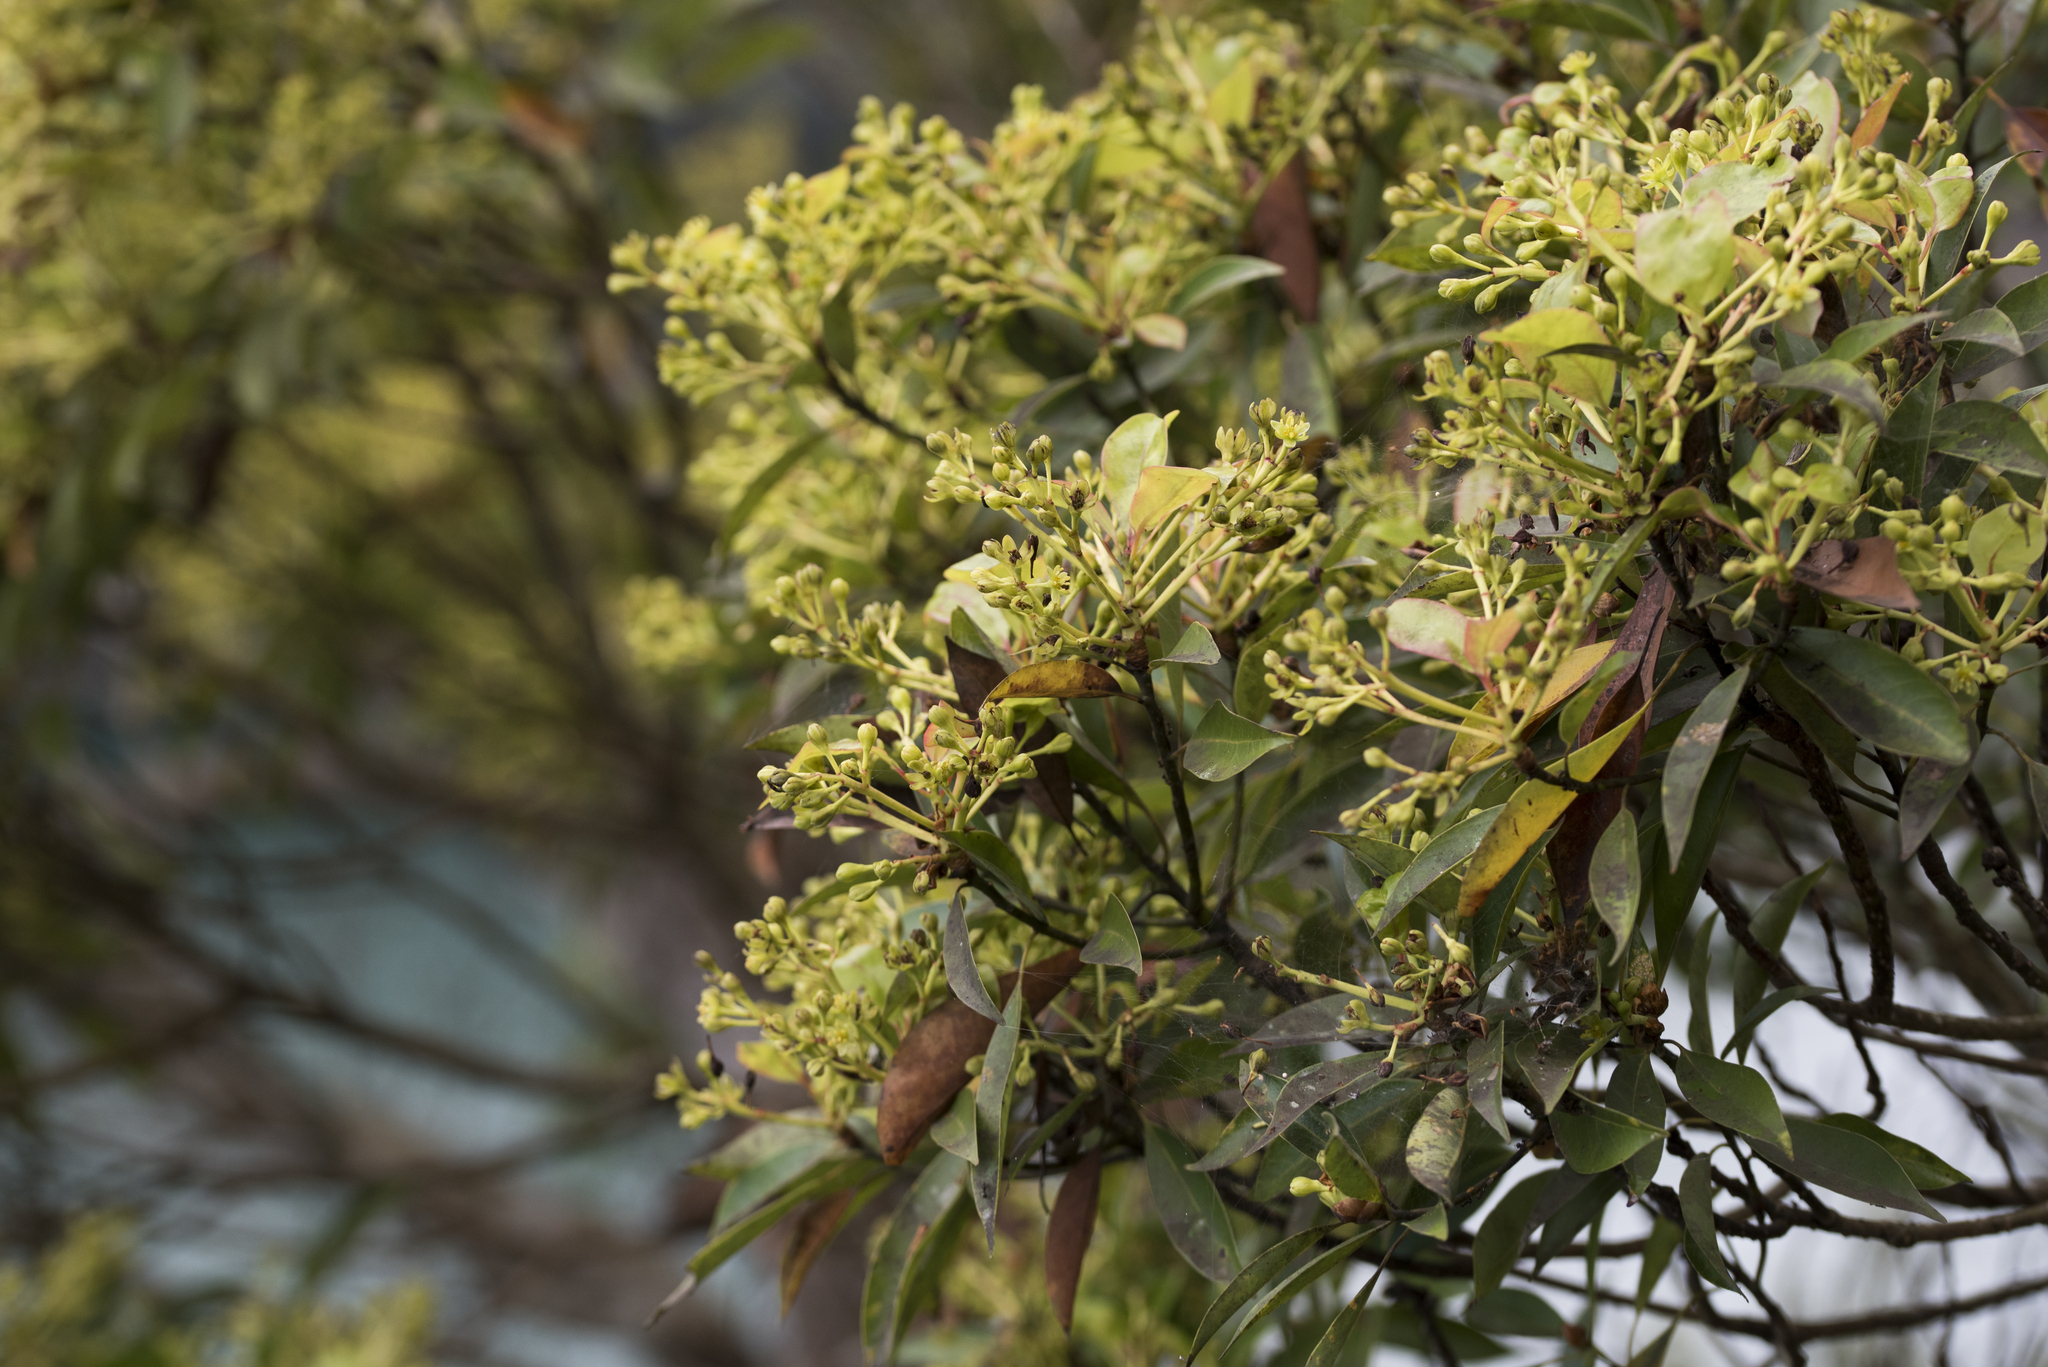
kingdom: Plantae
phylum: Tracheophyta
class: Magnoliopsida
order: Laurales
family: Lauraceae
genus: Machilus
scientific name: Machilus zuihoensis
